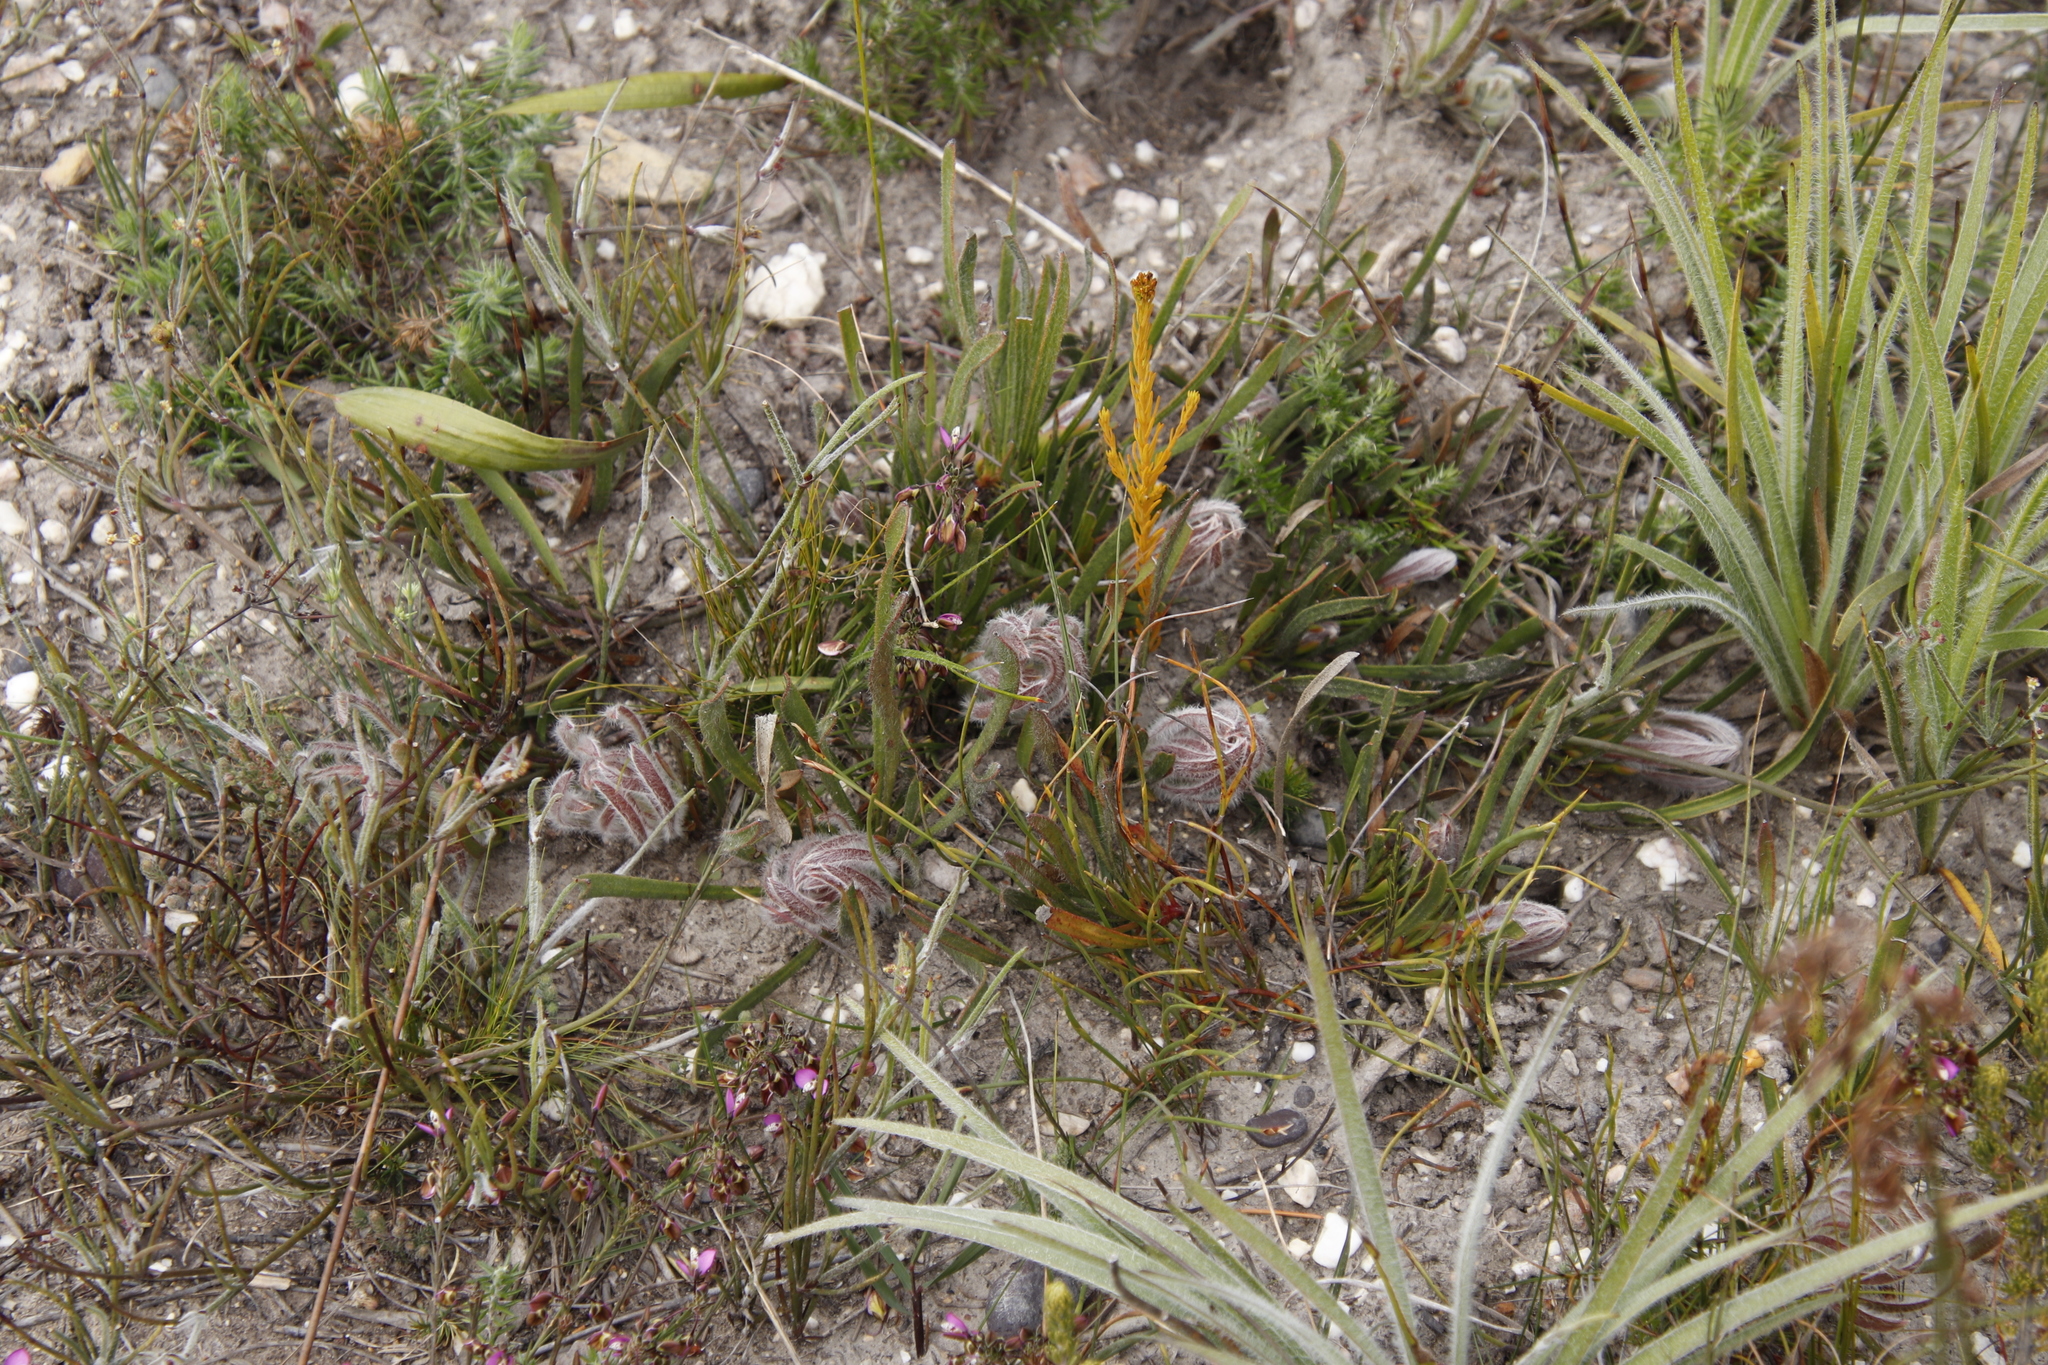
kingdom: Plantae
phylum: Tracheophyta
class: Magnoliopsida
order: Proteales
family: Proteaceae
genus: Protea
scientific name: Protea aspera
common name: Rough-leaf sugarbush
